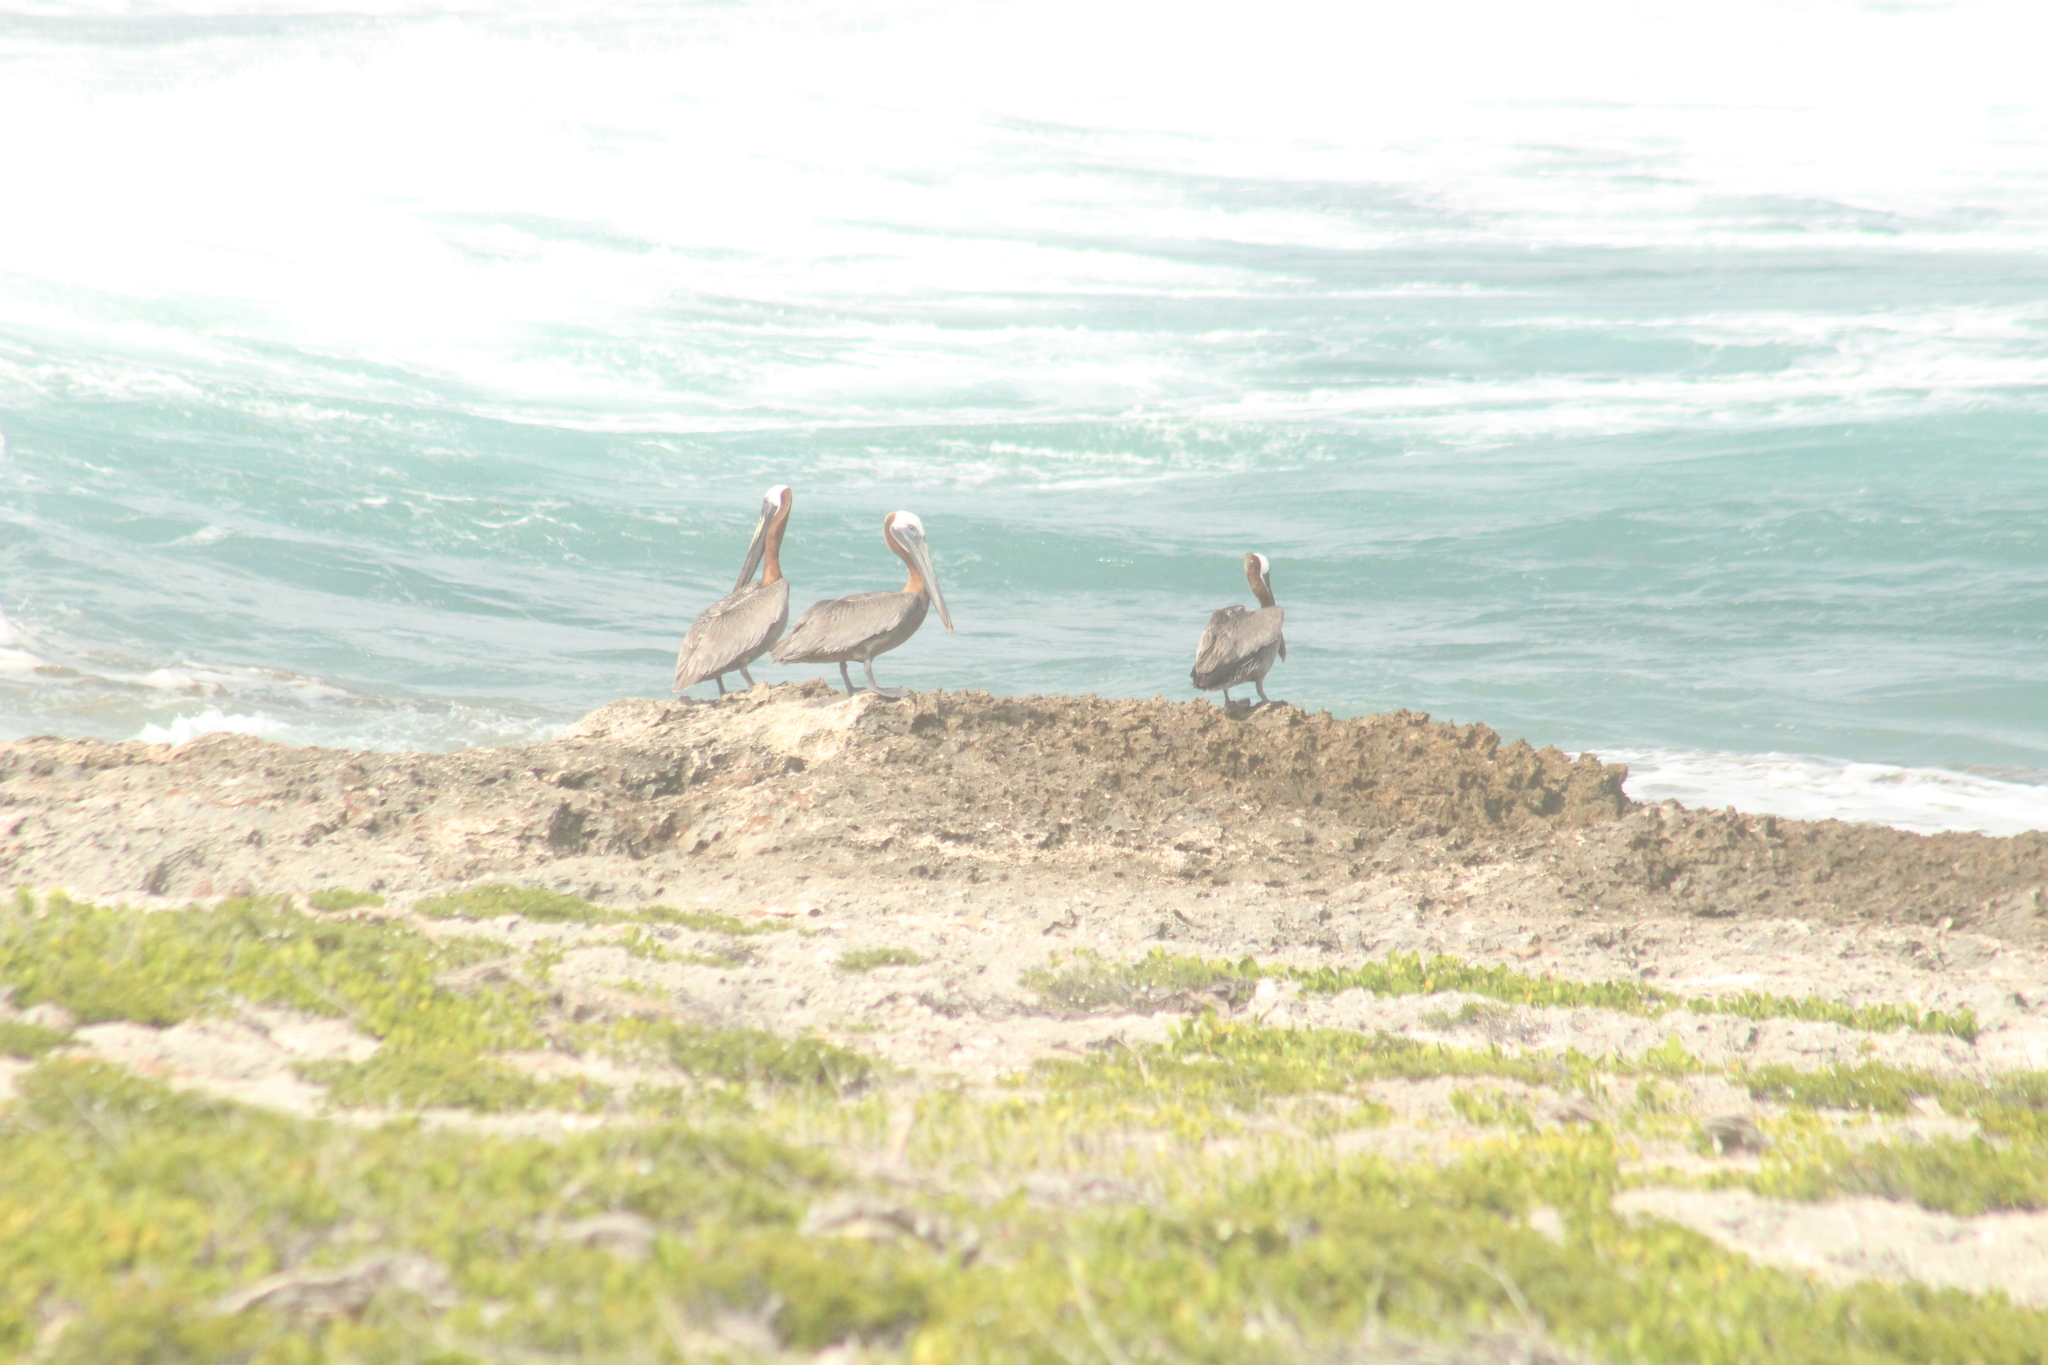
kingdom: Animalia
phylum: Chordata
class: Aves
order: Pelecaniformes
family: Pelecanidae
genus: Pelecanus
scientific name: Pelecanus occidentalis
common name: Brown pelican
